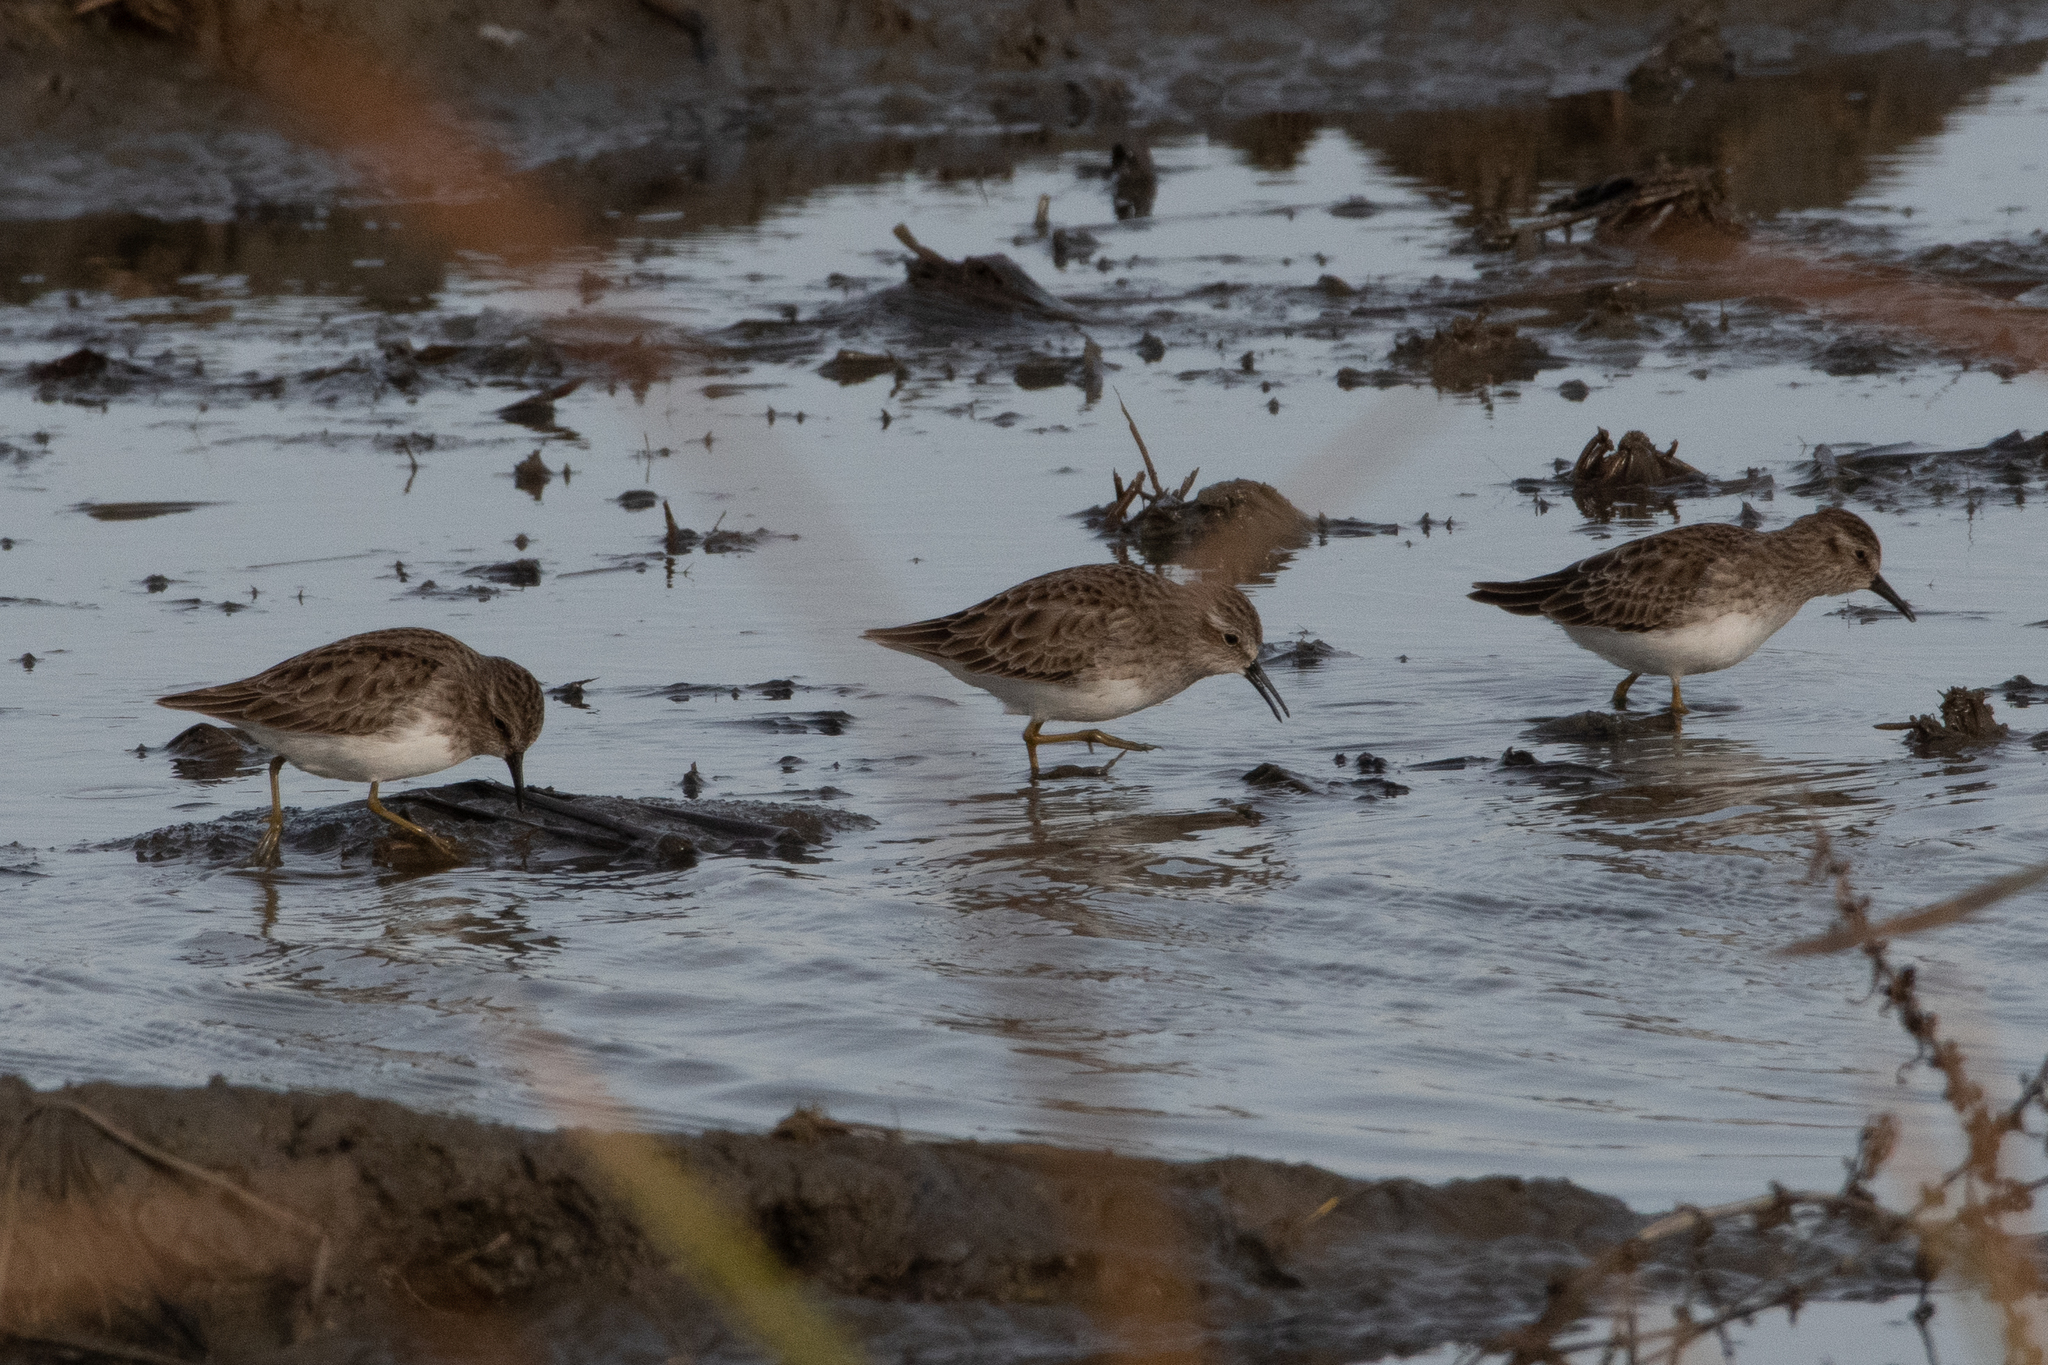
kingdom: Animalia
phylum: Chordata
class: Aves
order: Charadriiformes
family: Scolopacidae
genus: Calidris
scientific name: Calidris minutilla
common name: Least sandpiper
